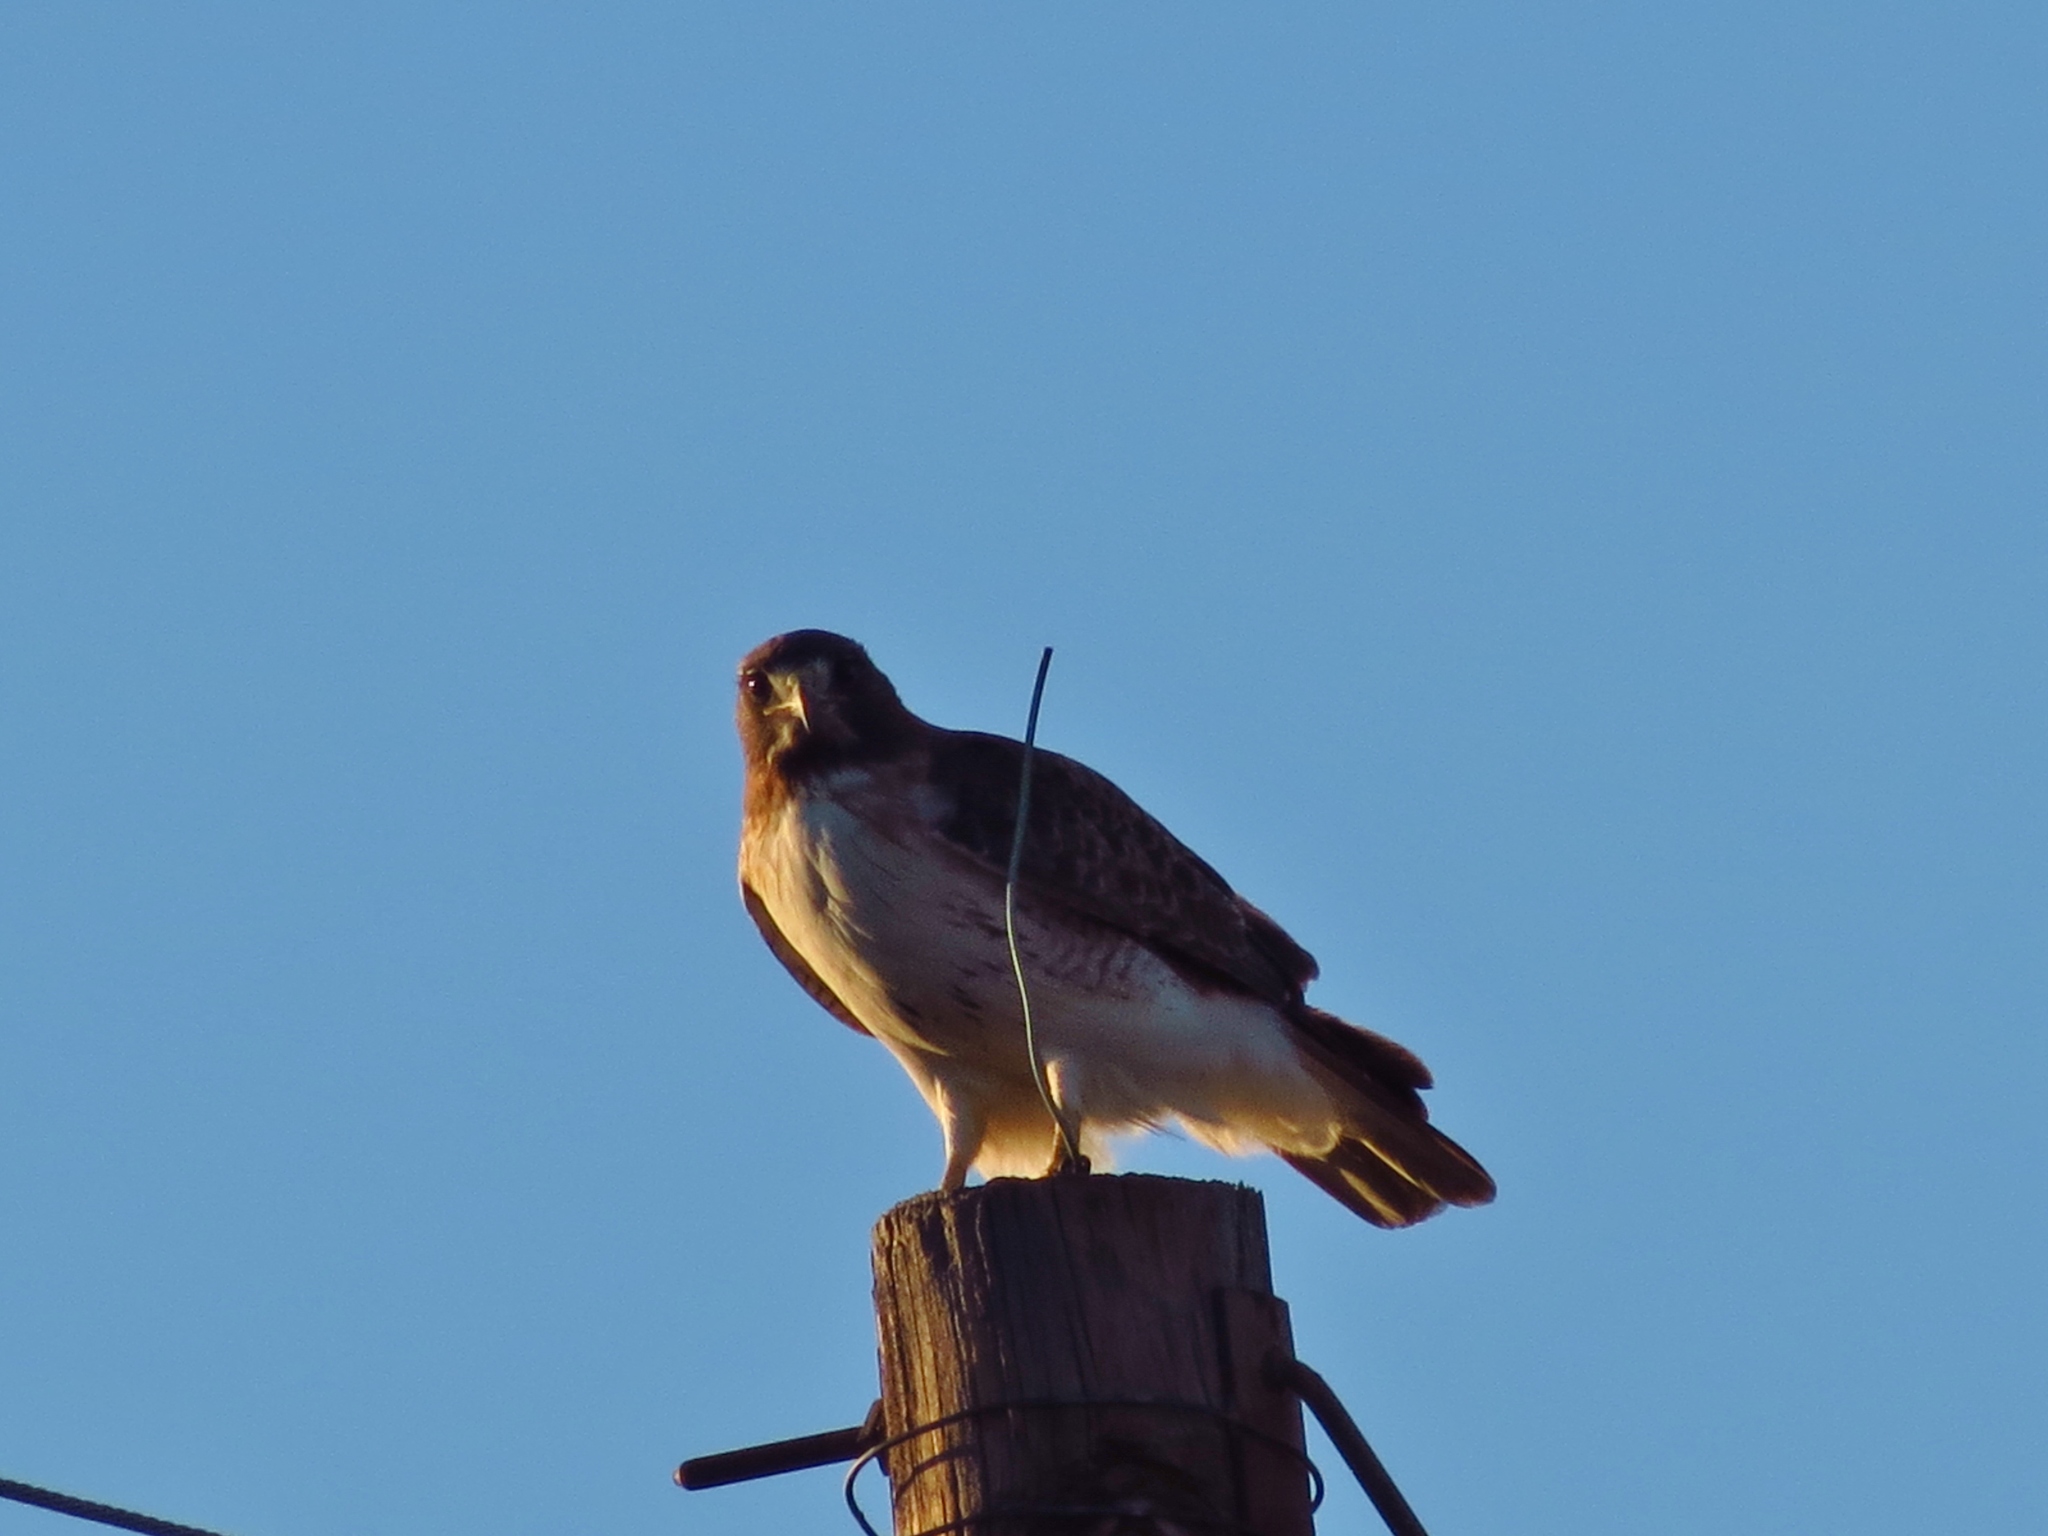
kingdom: Animalia
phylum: Chordata
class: Aves
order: Accipitriformes
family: Accipitridae
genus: Buteo
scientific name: Buteo jamaicensis
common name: Red-tailed hawk
